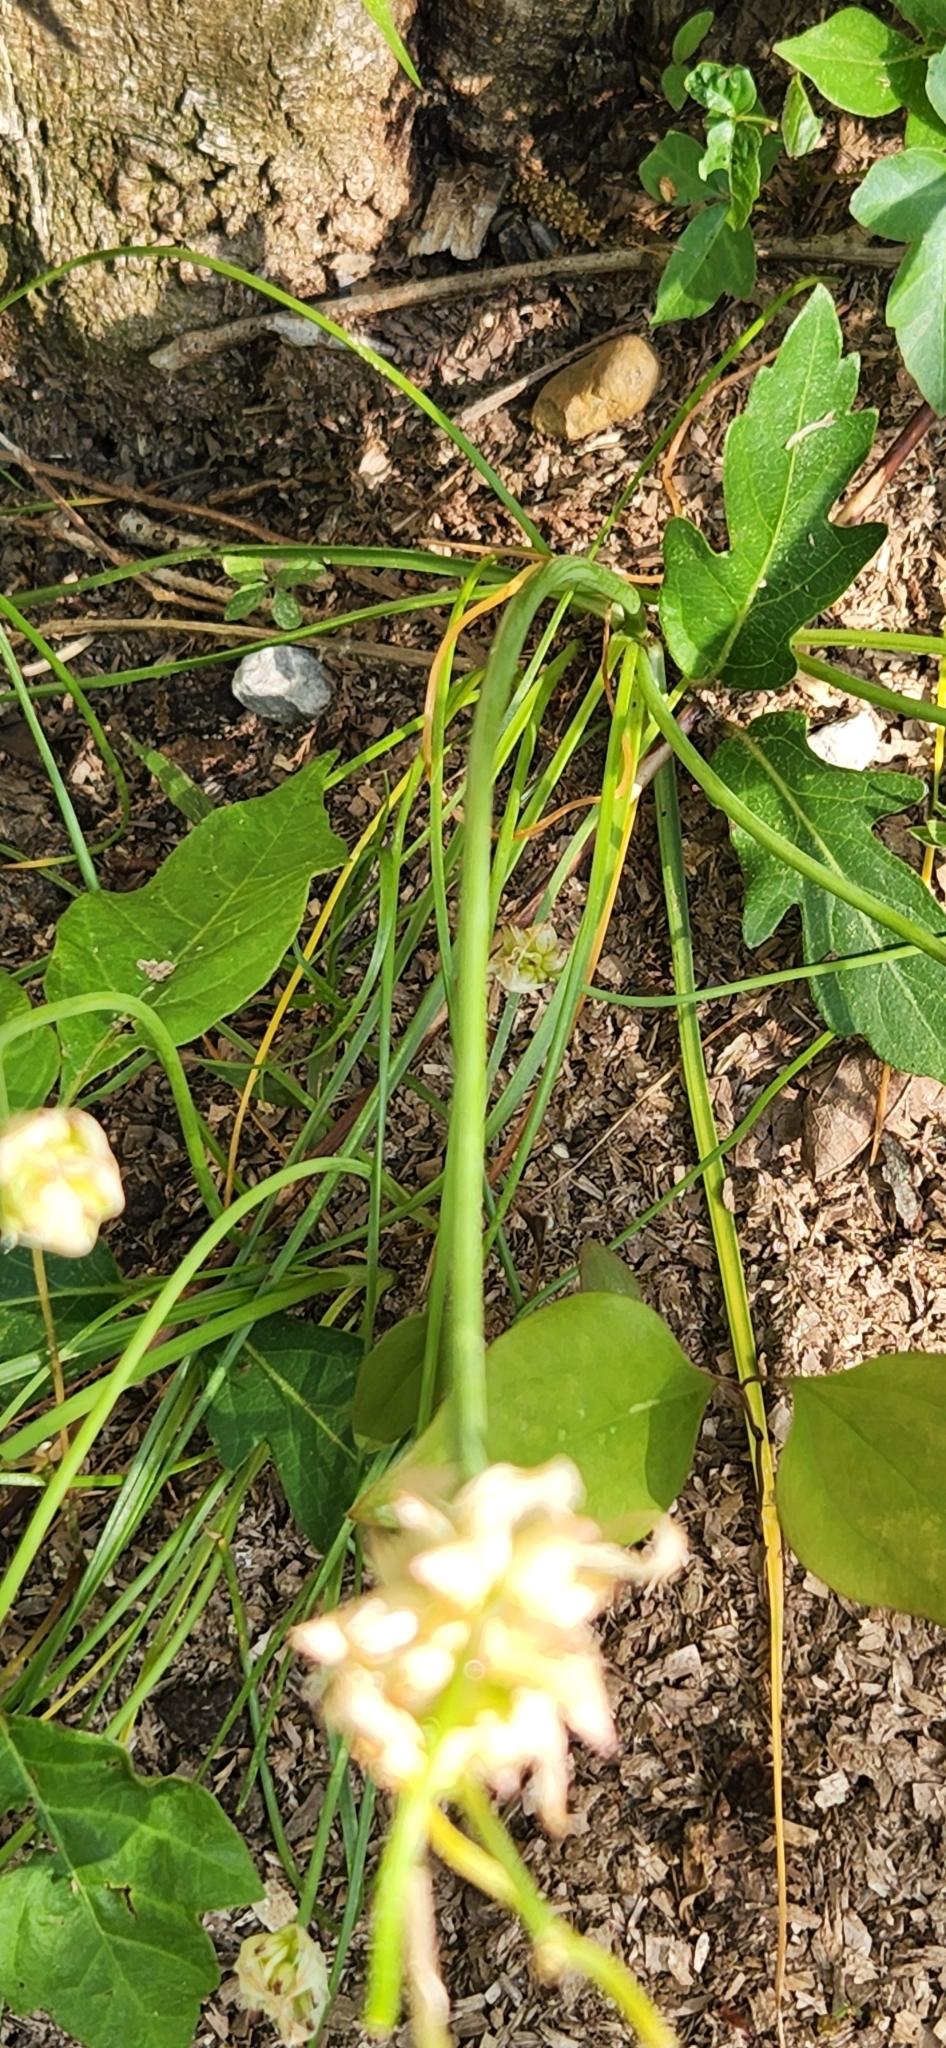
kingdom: Plantae
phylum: Tracheophyta
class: Liliopsida
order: Asparagales
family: Amaryllidaceae
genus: Allium
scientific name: Allium canadense
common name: Meadow garlic
